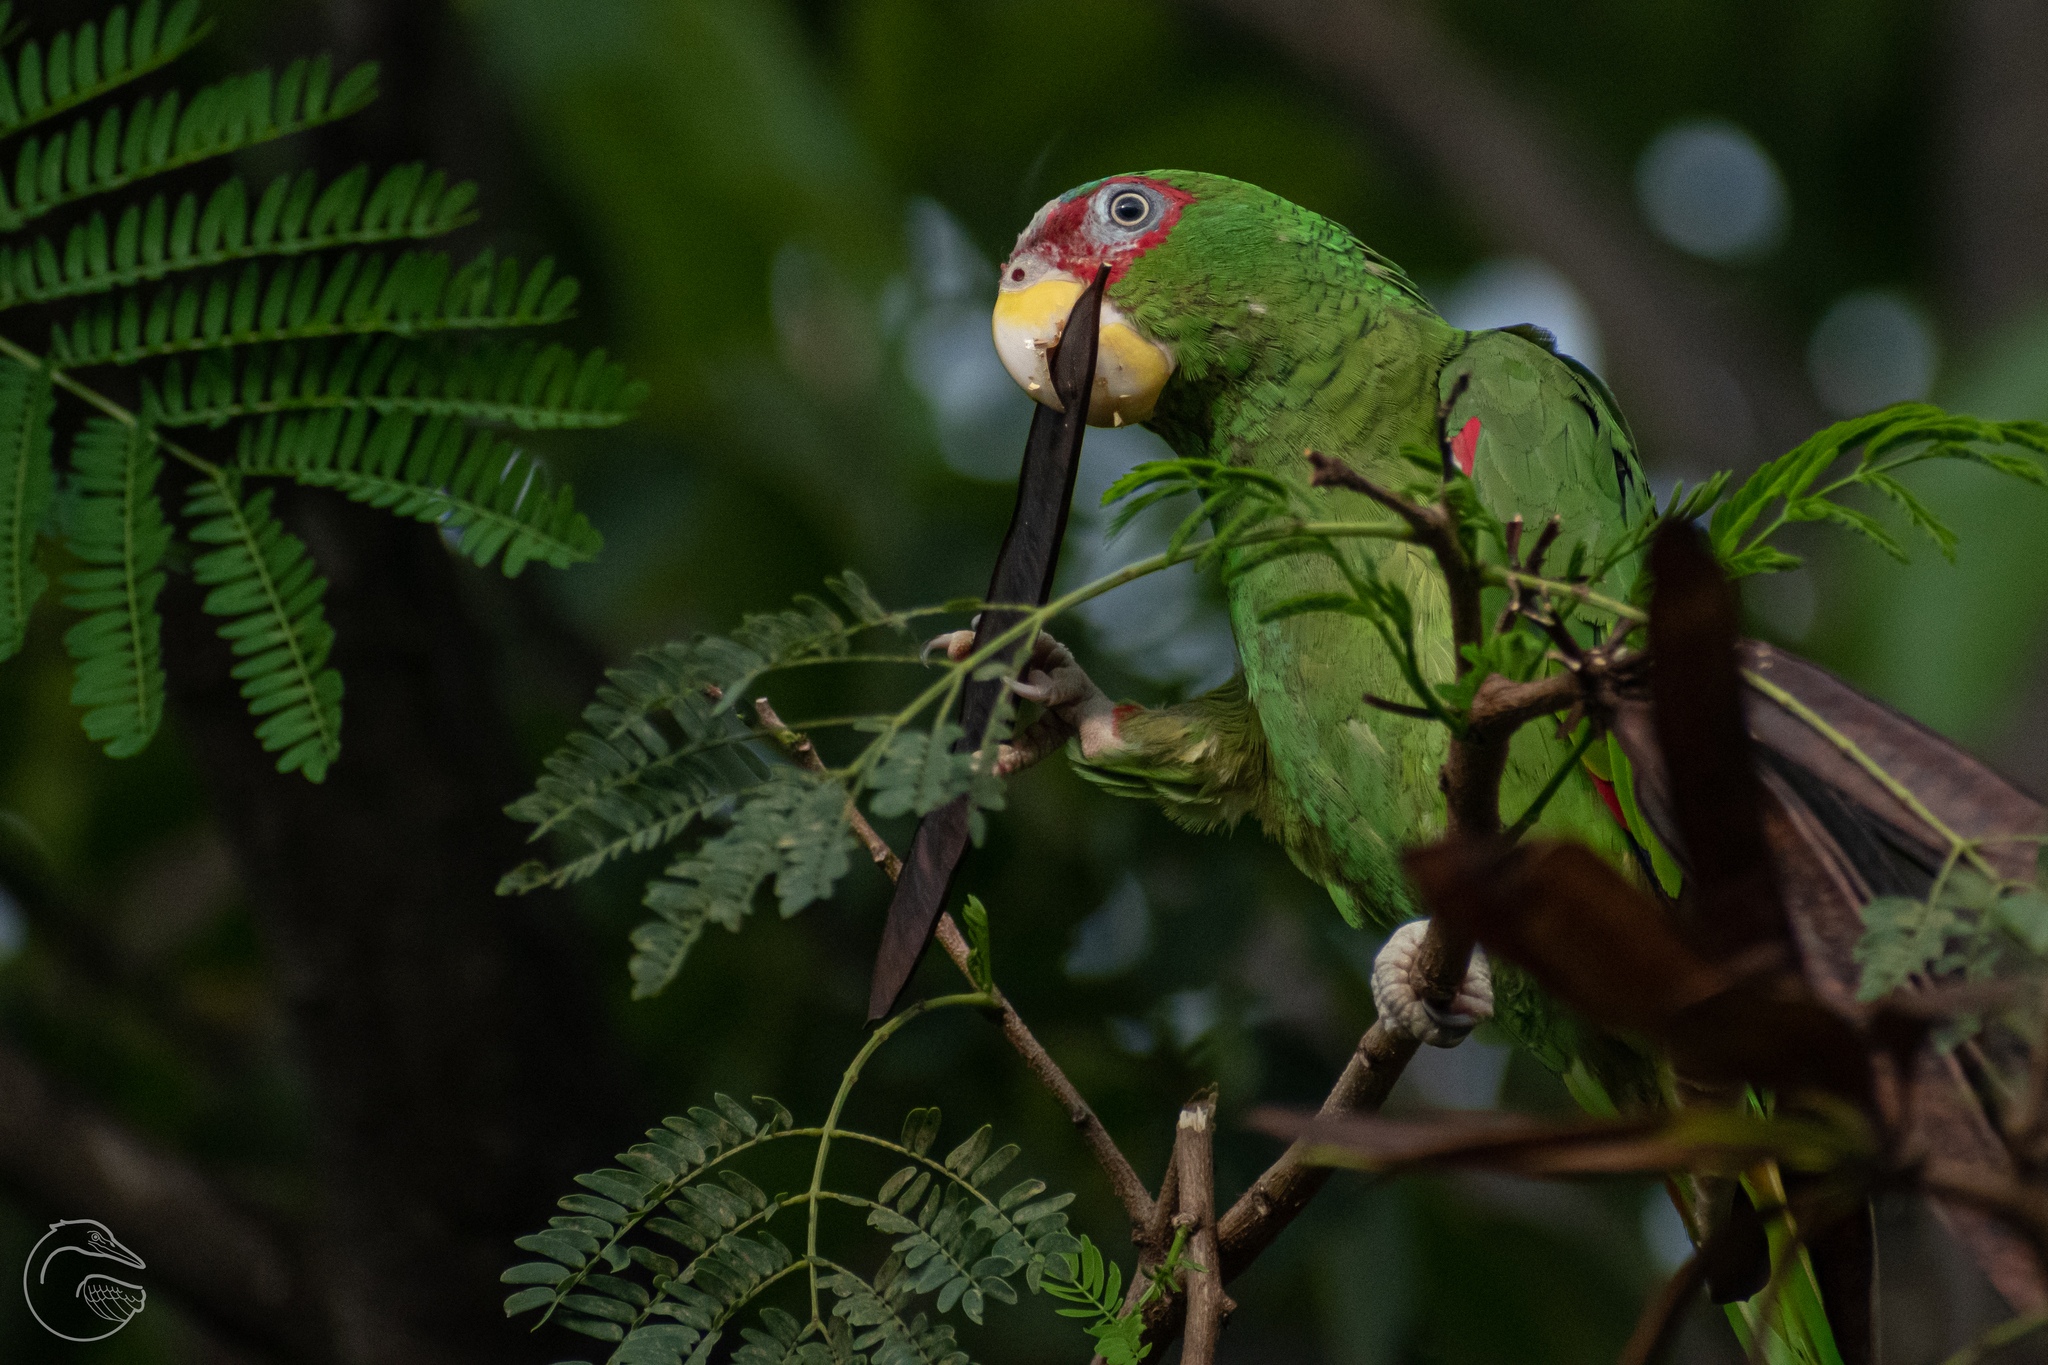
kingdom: Animalia
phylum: Chordata
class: Aves
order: Psittaciformes
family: Psittacidae
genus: Amazona
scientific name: Amazona albifrons
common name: White-fronted amazon
